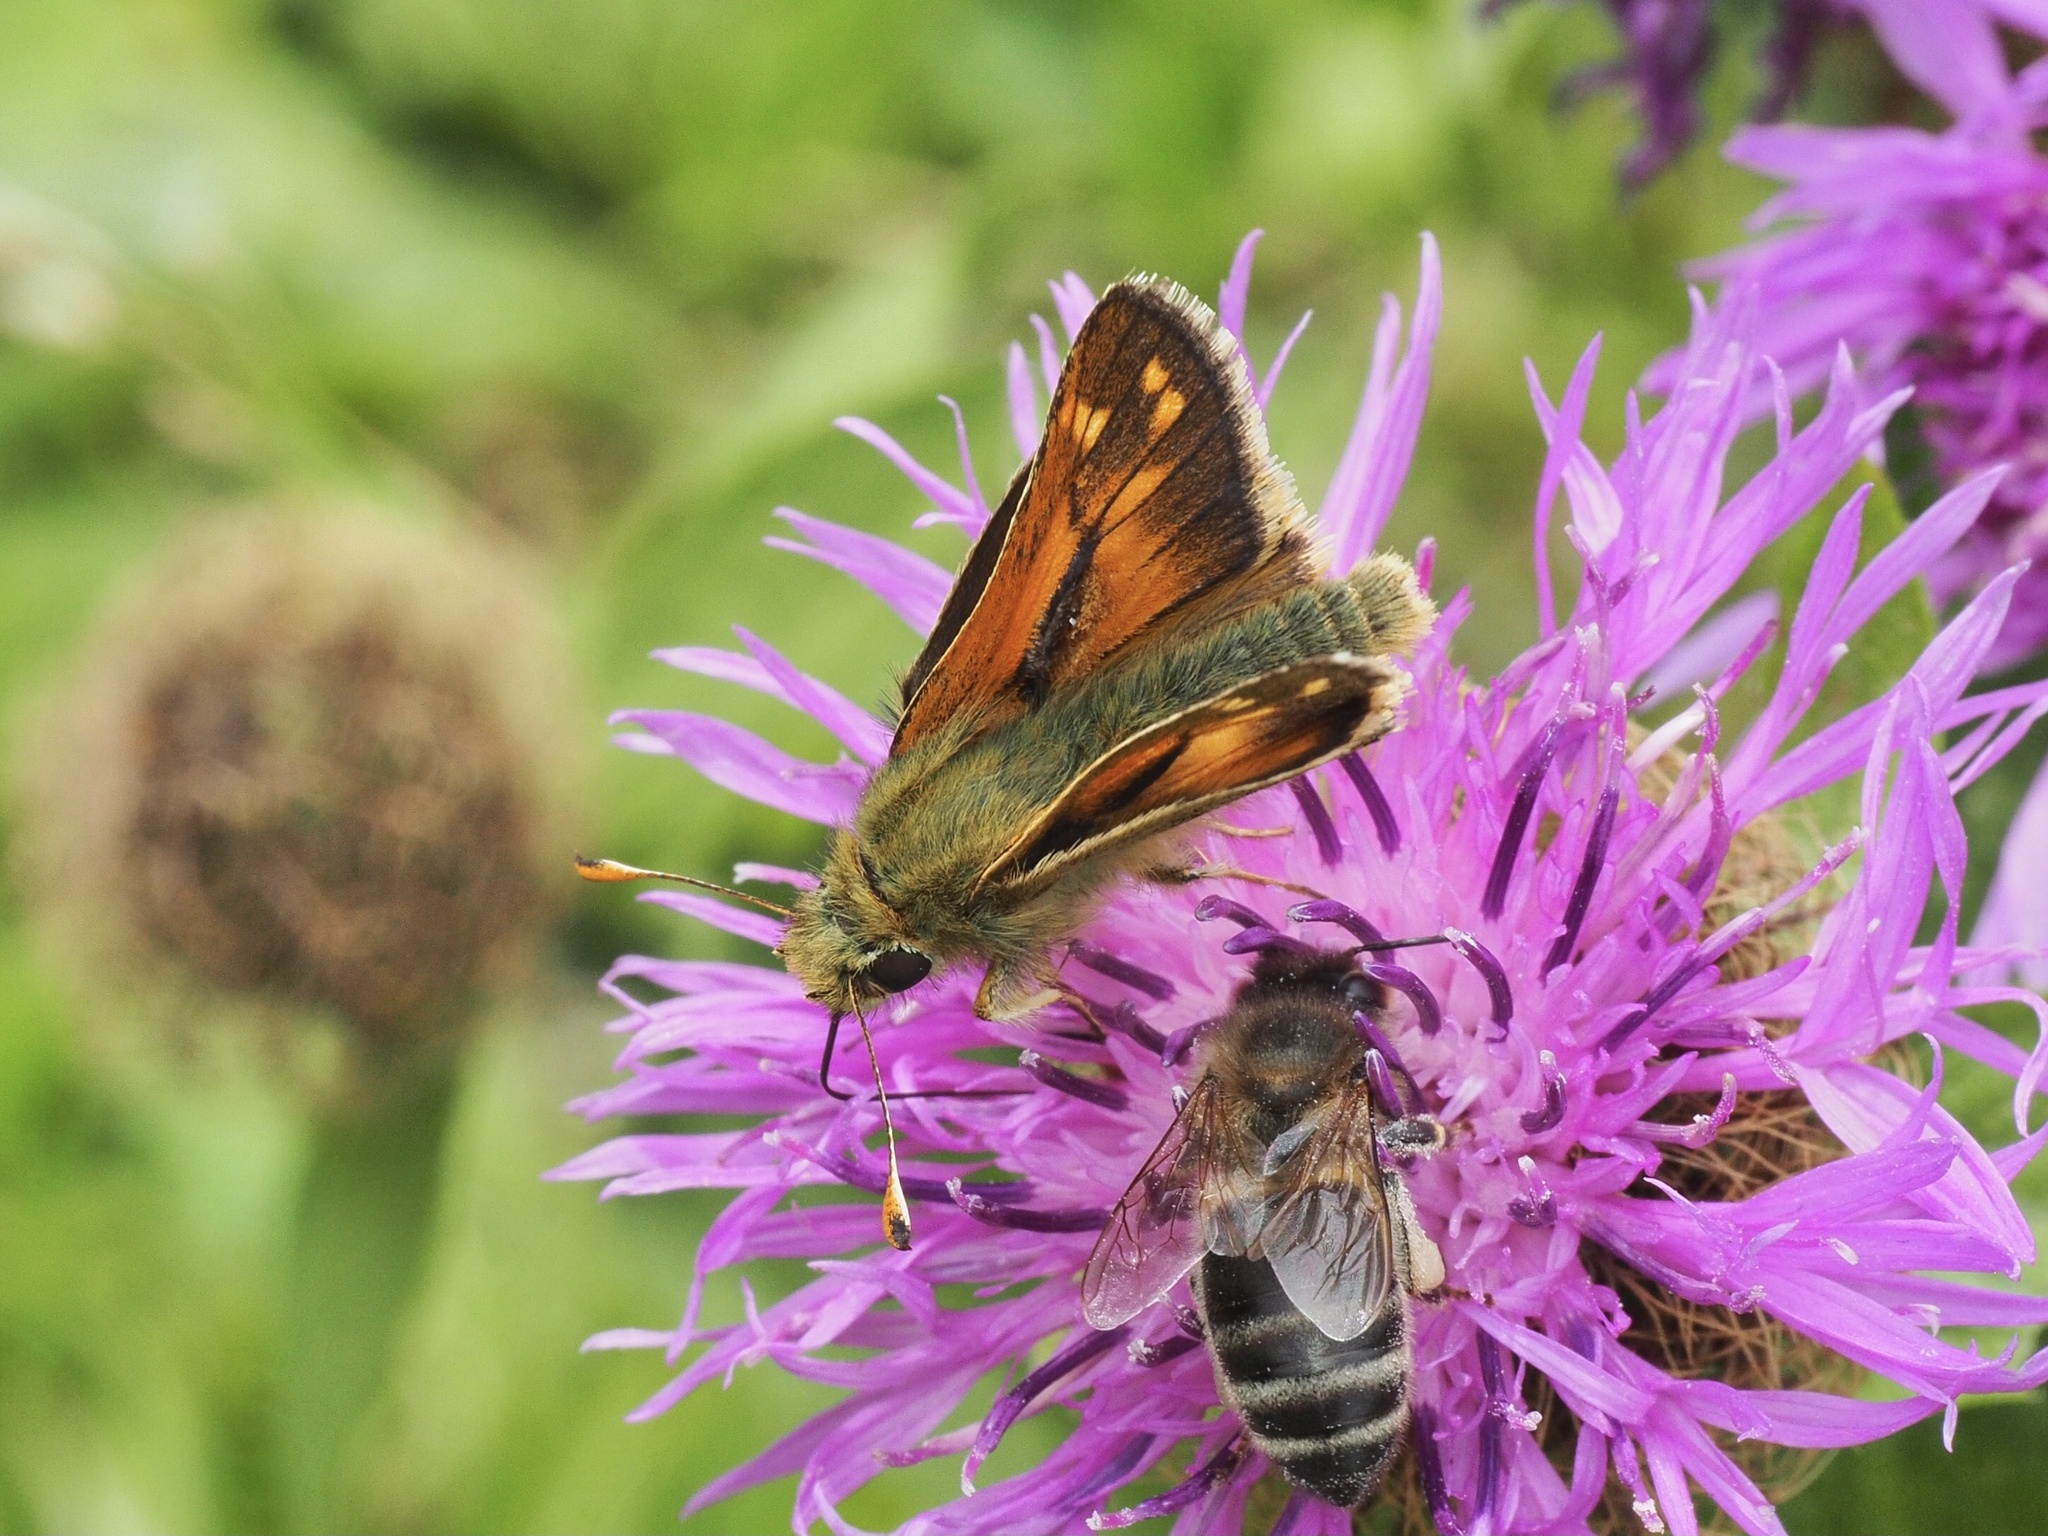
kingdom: Animalia
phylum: Arthropoda
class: Insecta
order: Lepidoptera
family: Hesperiidae
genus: Hesperia
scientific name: Hesperia comma
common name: Common branded skipper
